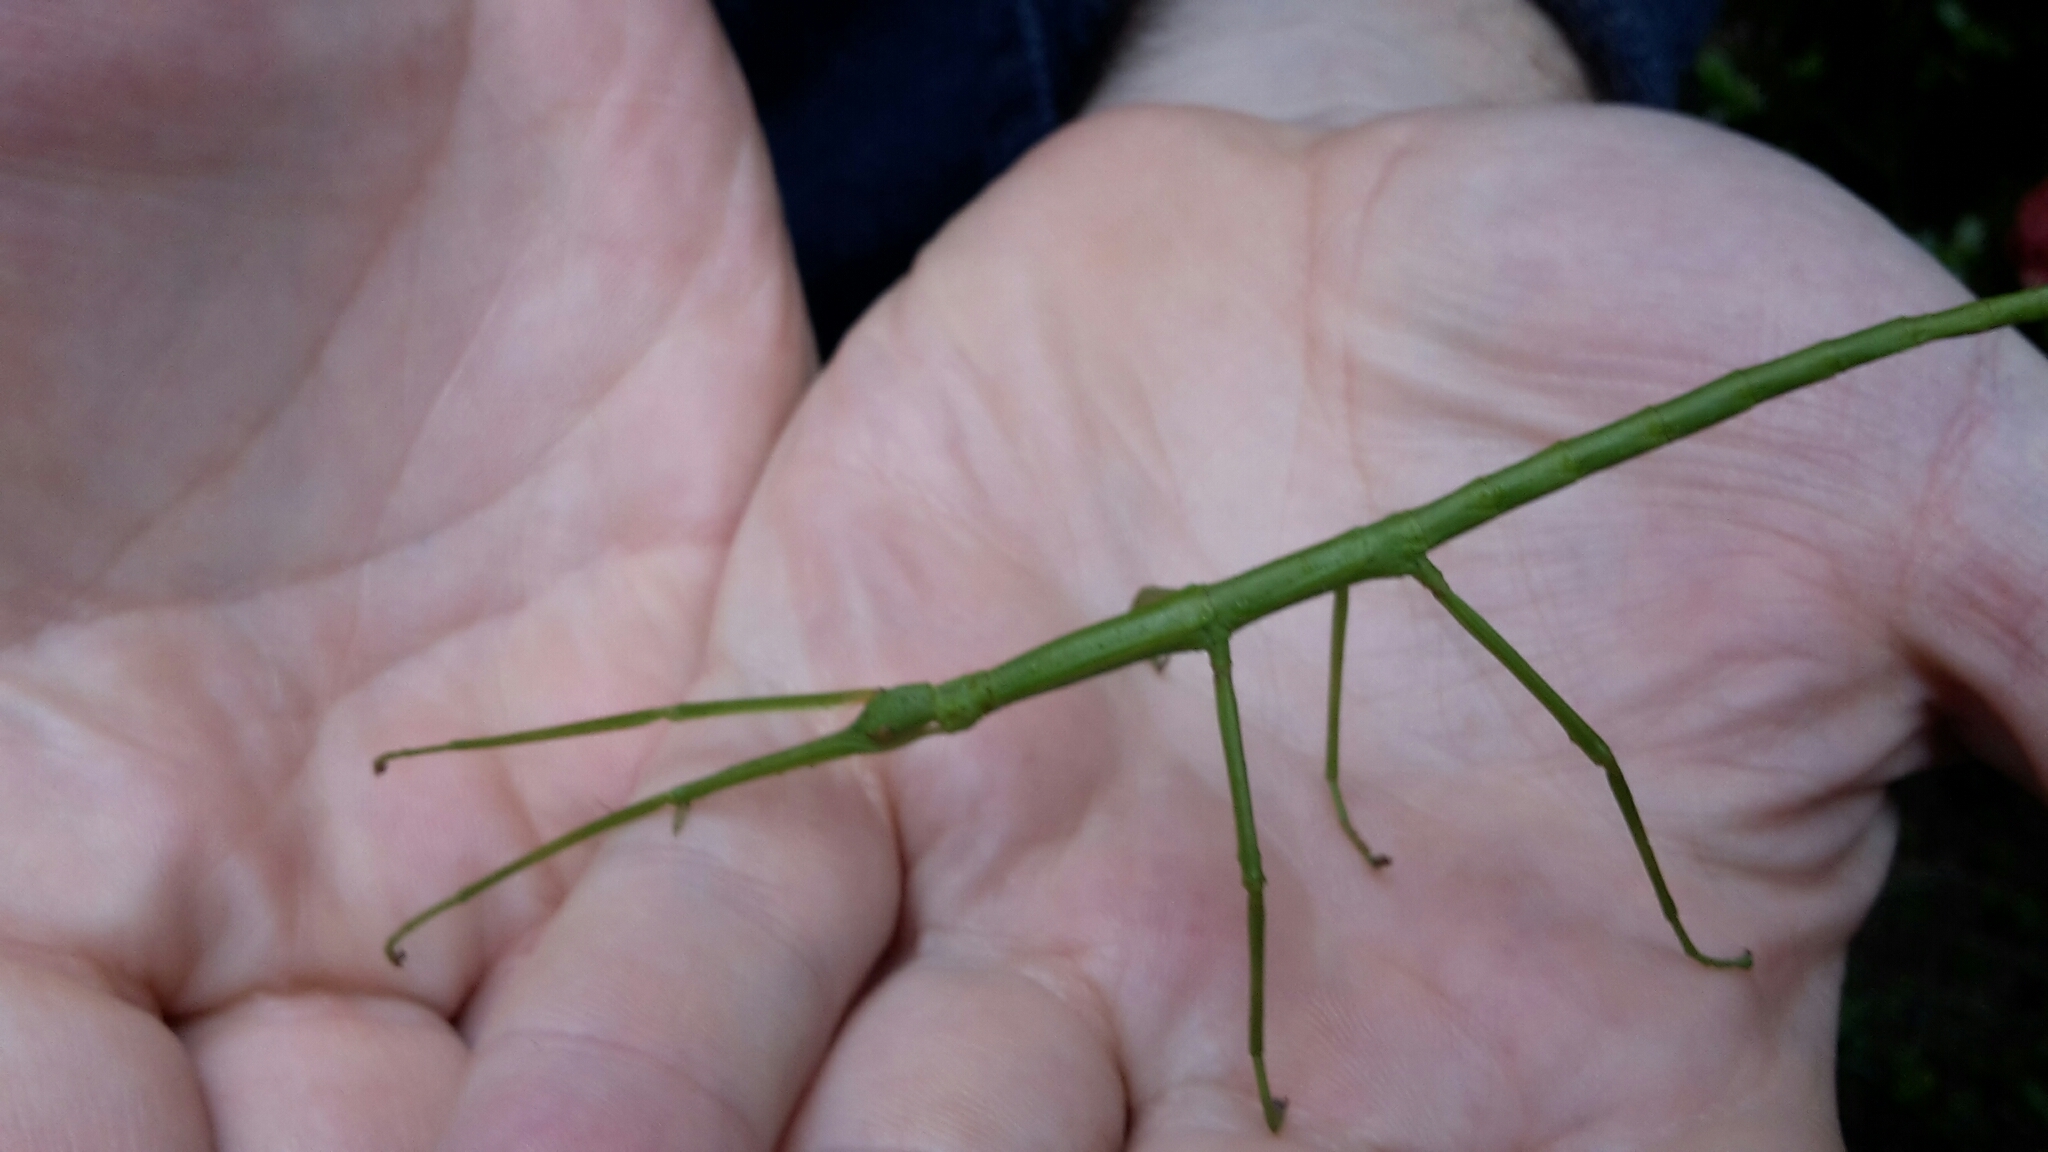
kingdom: Animalia
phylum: Arthropoda
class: Insecta
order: Phasmida
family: Phasmatidae
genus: Clitarchus
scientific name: Clitarchus hookeri
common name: Smooth stick insect
